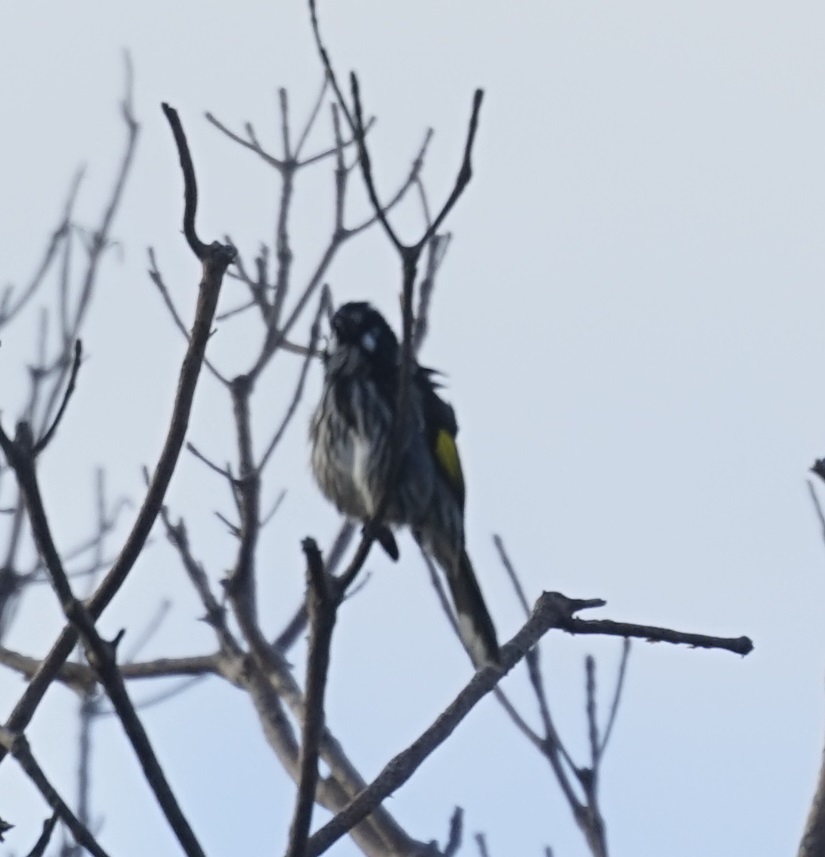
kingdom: Animalia
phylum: Chordata
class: Aves
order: Passeriformes
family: Meliphagidae
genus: Phylidonyris
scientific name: Phylidonyris novaehollandiae
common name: New holland honeyeater
